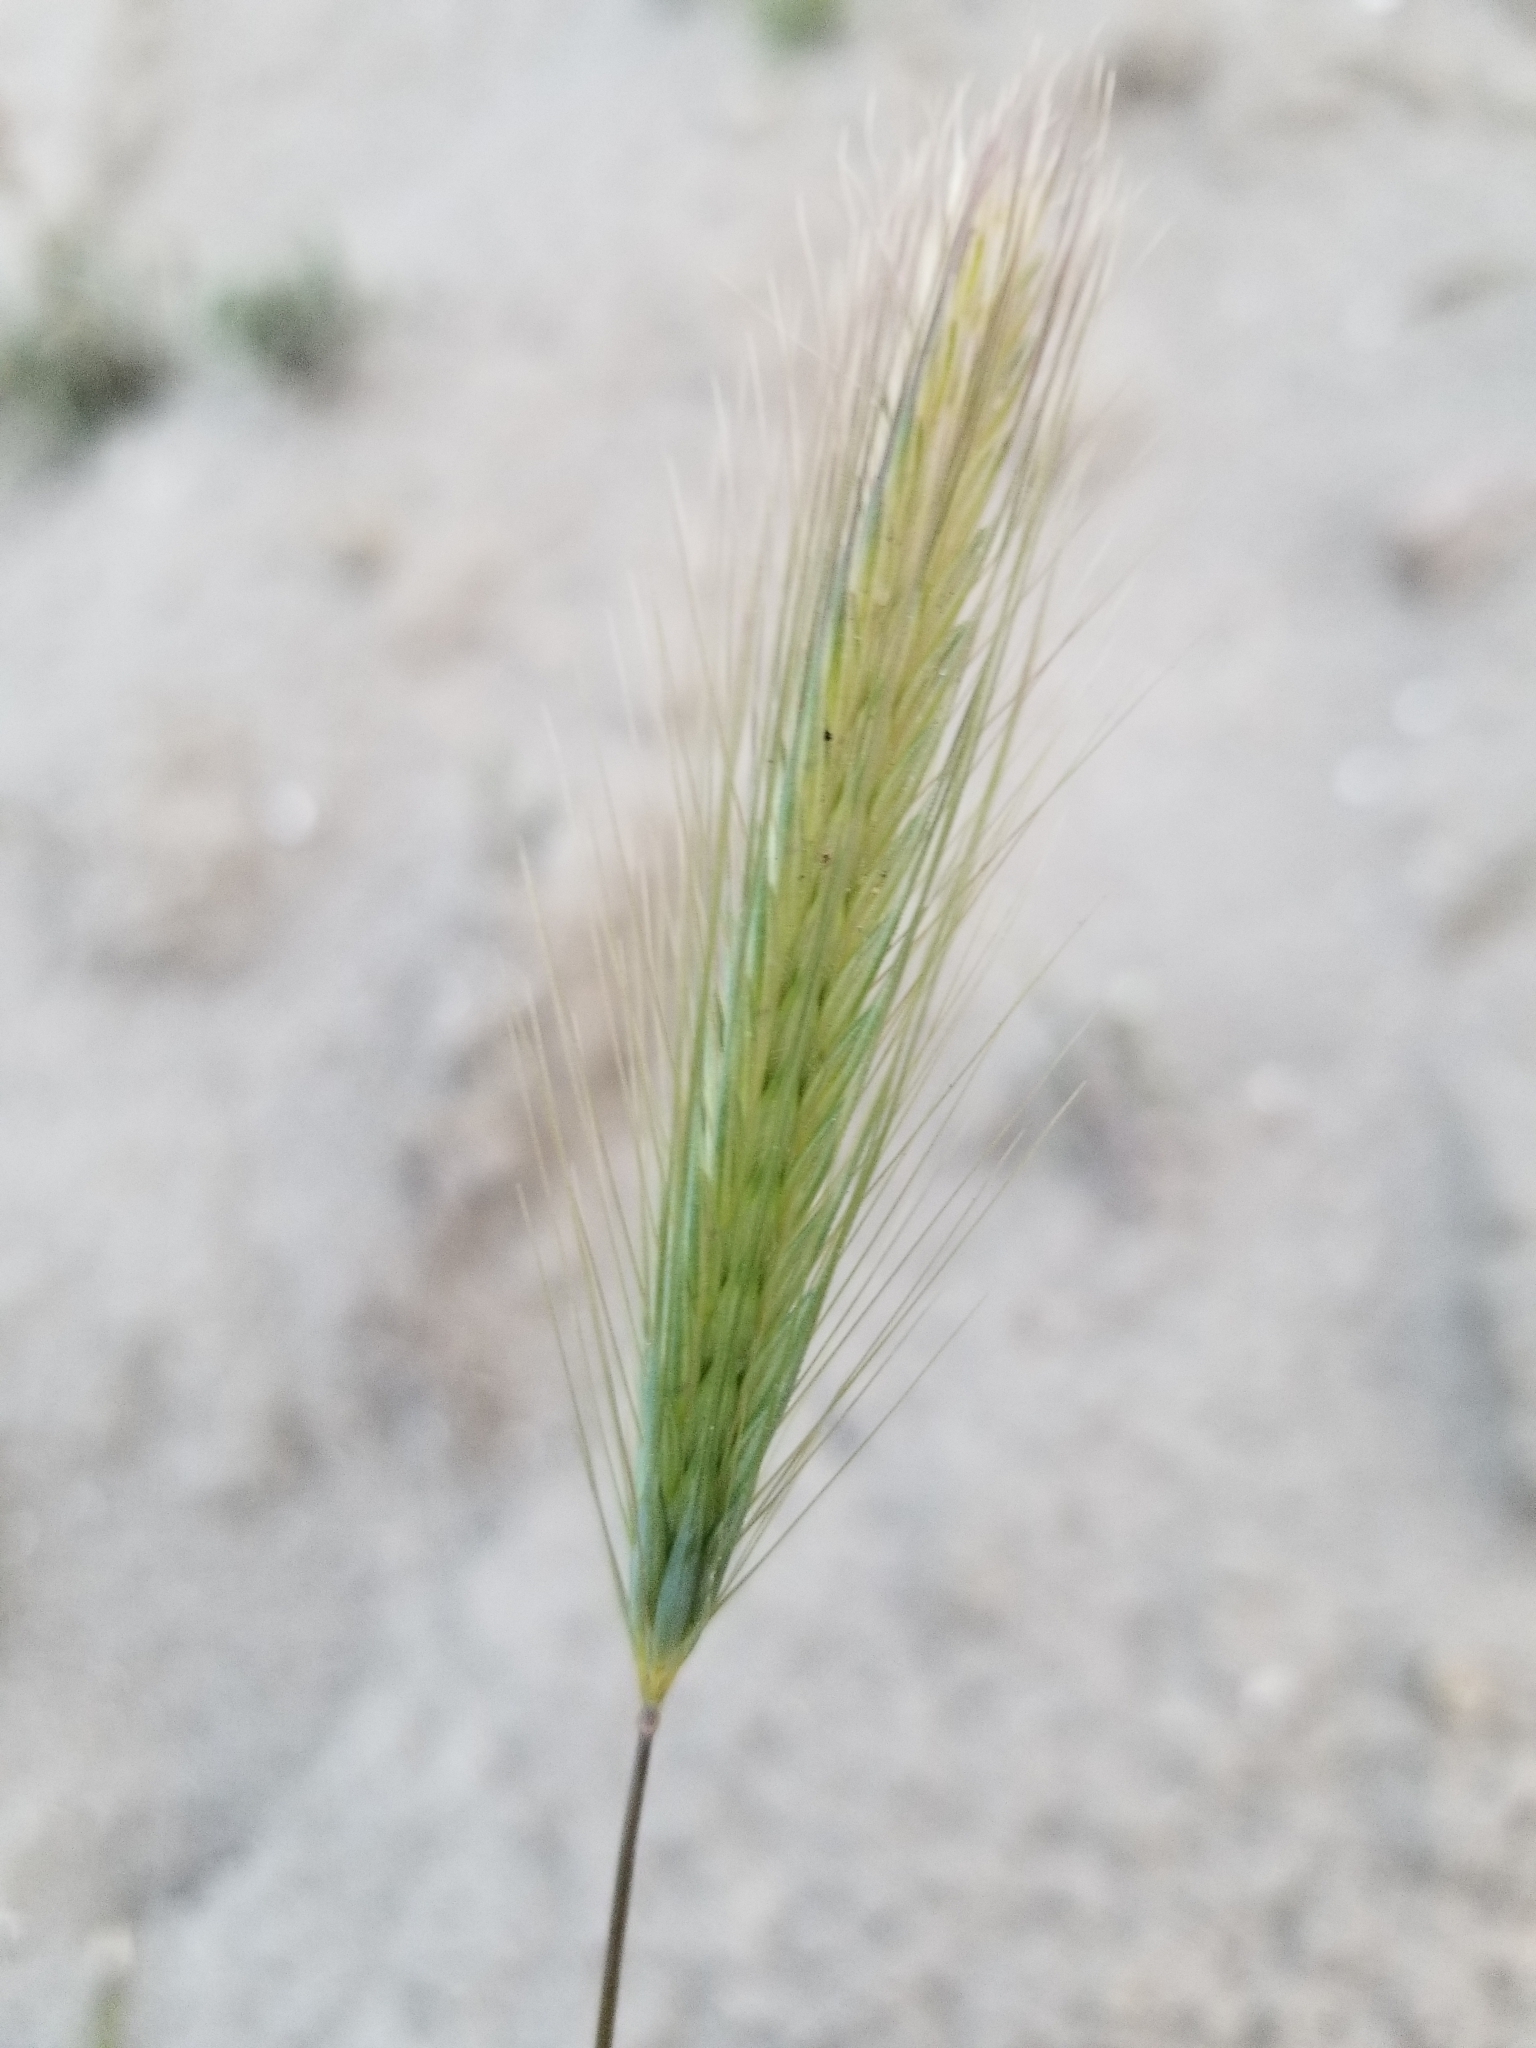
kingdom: Plantae
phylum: Tracheophyta
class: Liliopsida
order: Poales
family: Poaceae
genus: Hordeum
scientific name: Hordeum murinum
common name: Wall barley
